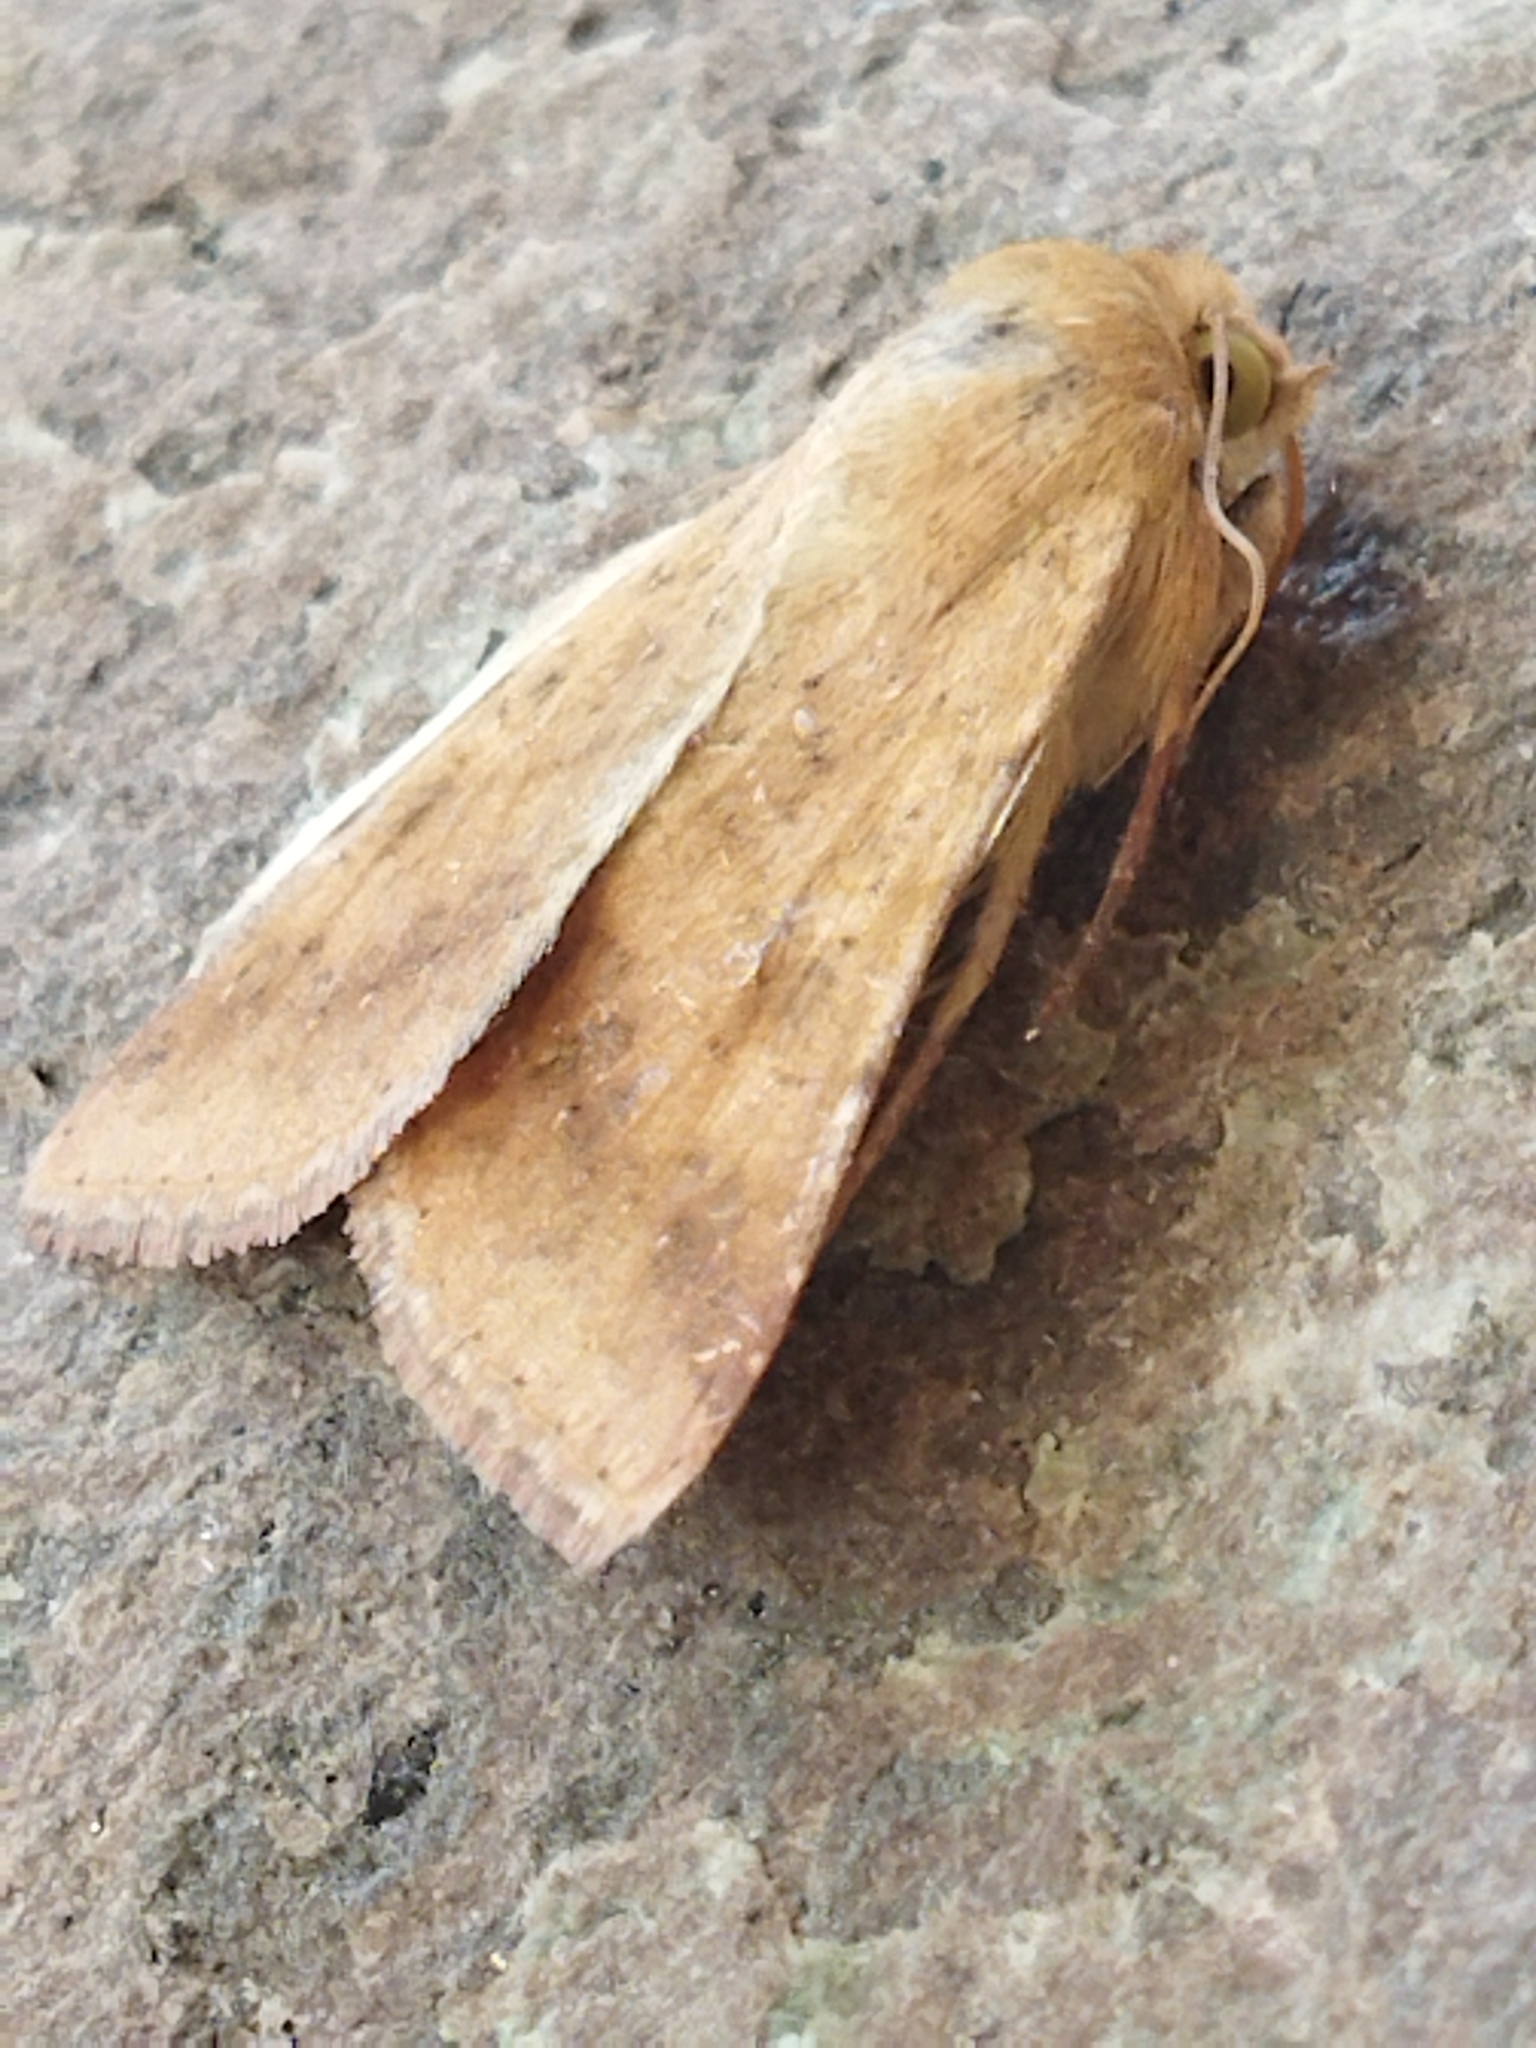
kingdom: Animalia
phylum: Arthropoda
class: Insecta
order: Lepidoptera
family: Noctuidae
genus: Helicoverpa
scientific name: Helicoverpa armigera
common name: Cotton bollworm
